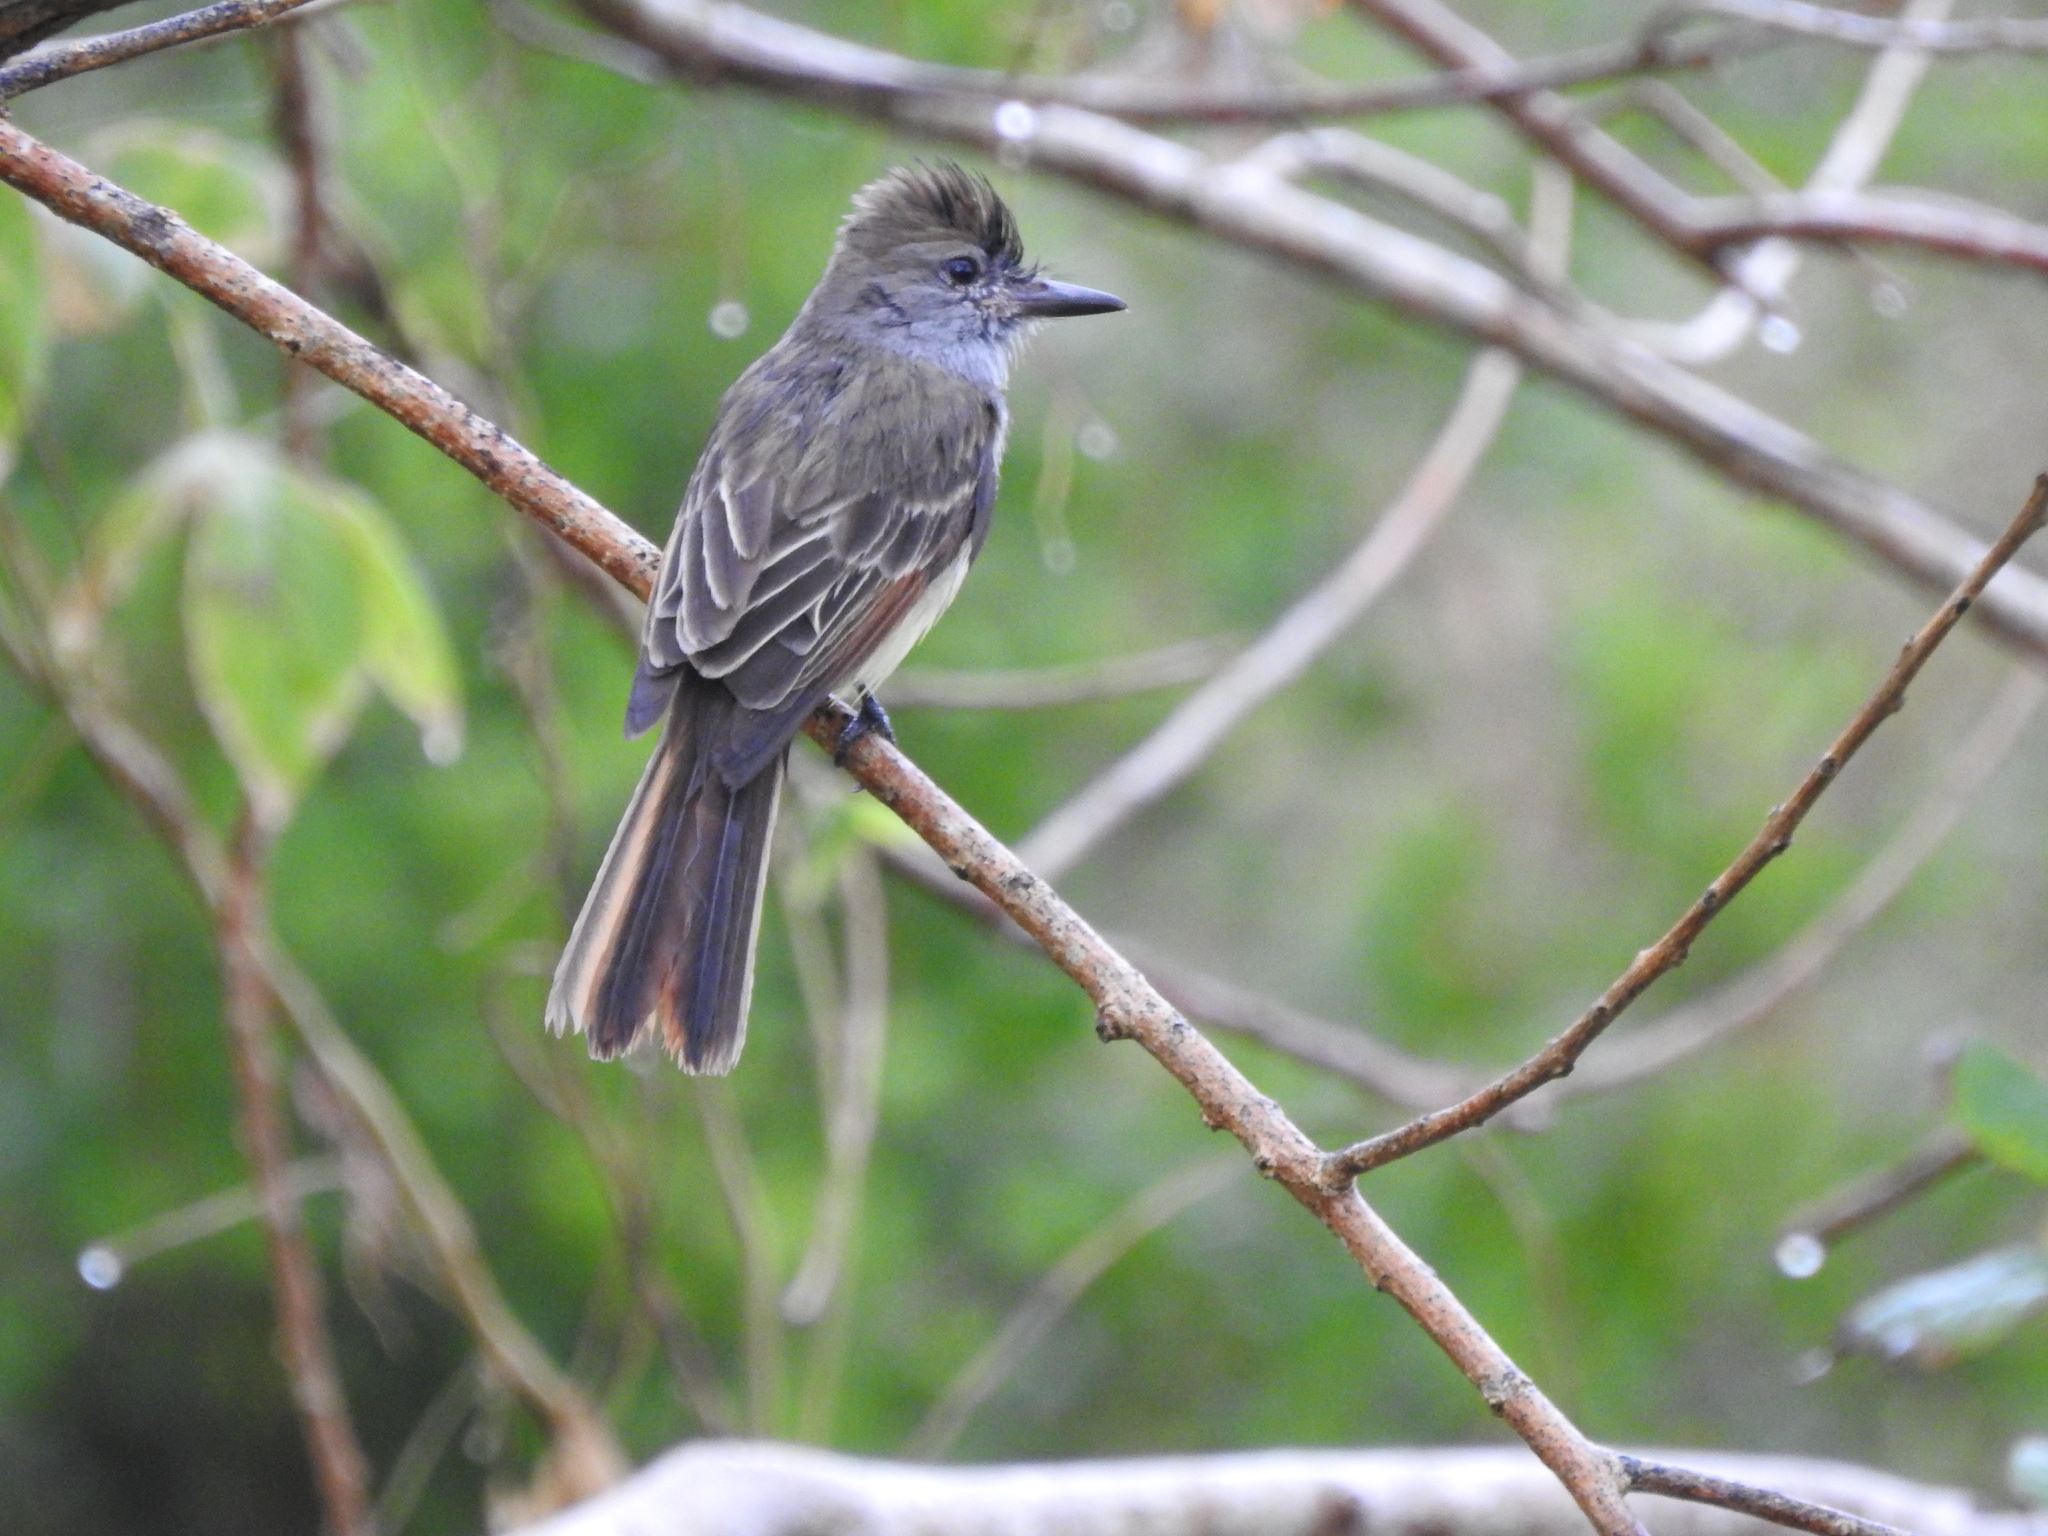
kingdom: Animalia
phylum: Chordata
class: Aves
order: Passeriformes
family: Tyrannidae
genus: Myiarchus
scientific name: Myiarchus tyrannulus
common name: Brown-crested flycatcher
